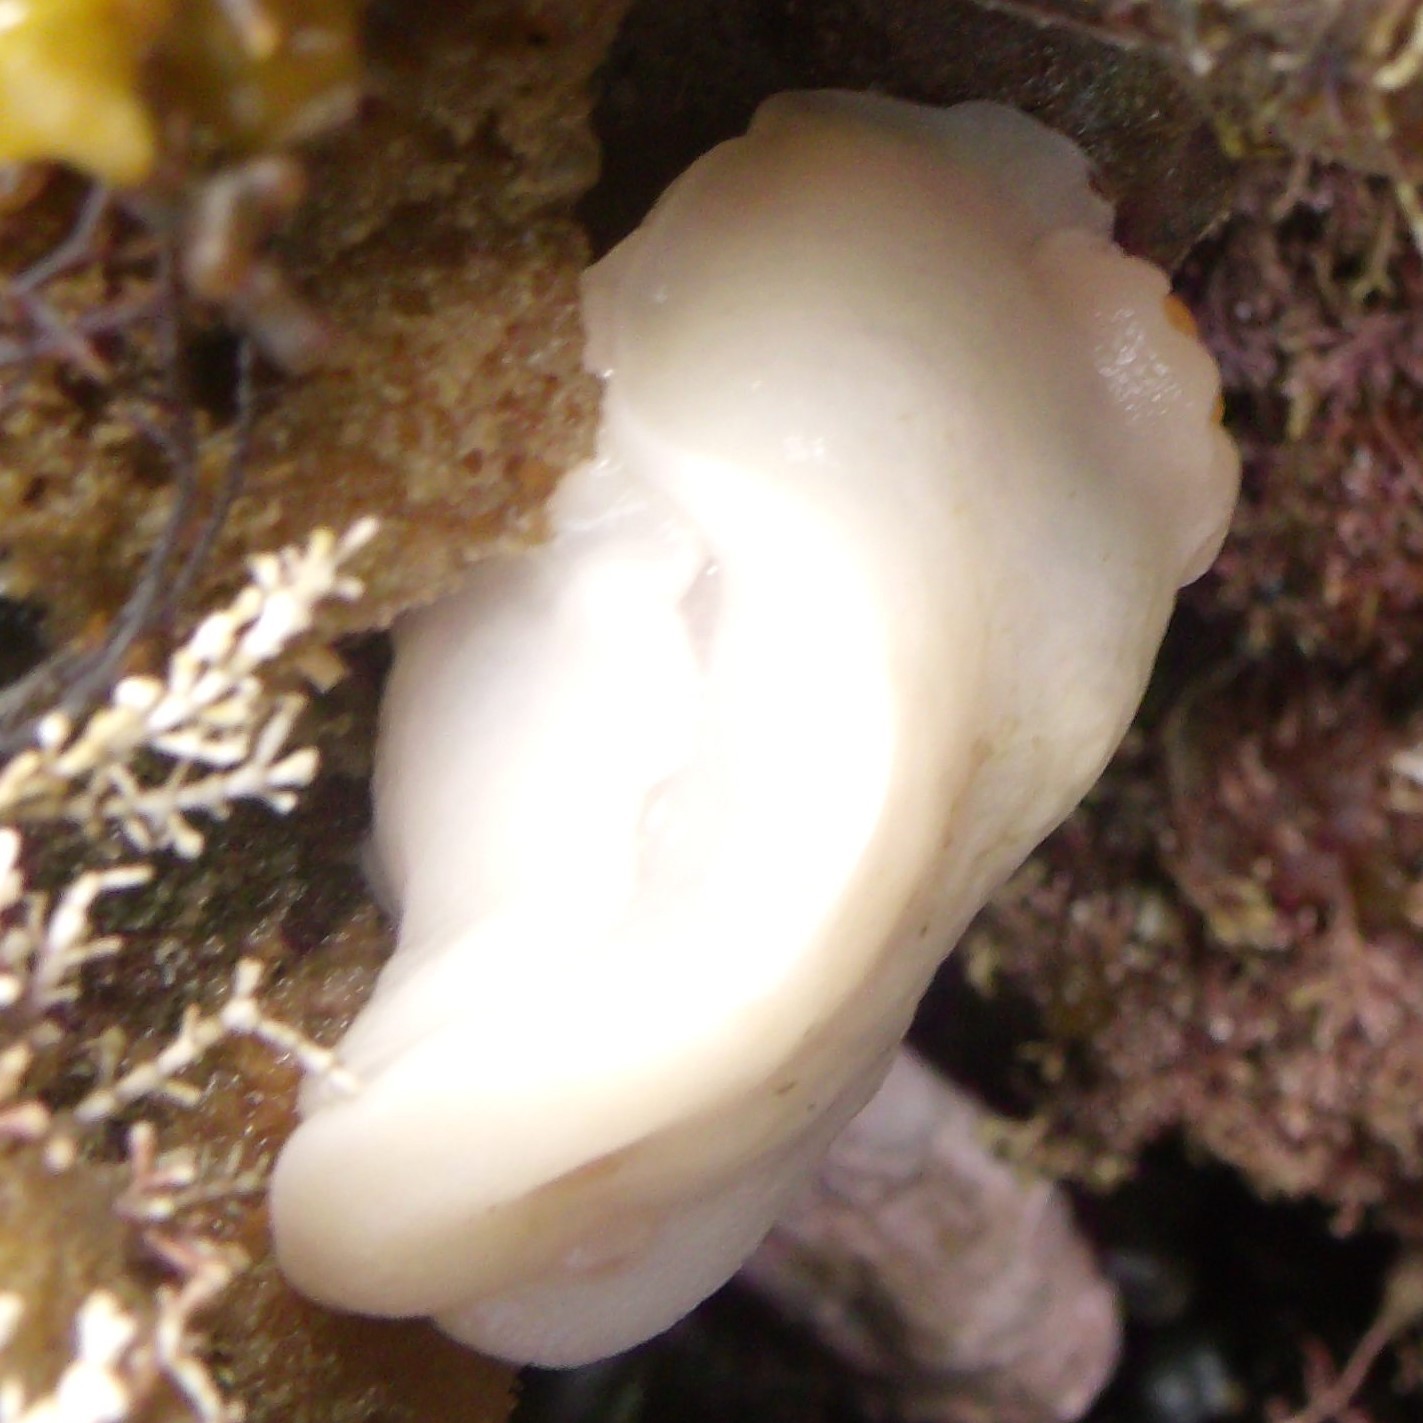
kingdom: Animalia
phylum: Mollusca
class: Gastropoda
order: Nudibranchia
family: Discodorididae
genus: Atagema
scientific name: Atagema carinata
